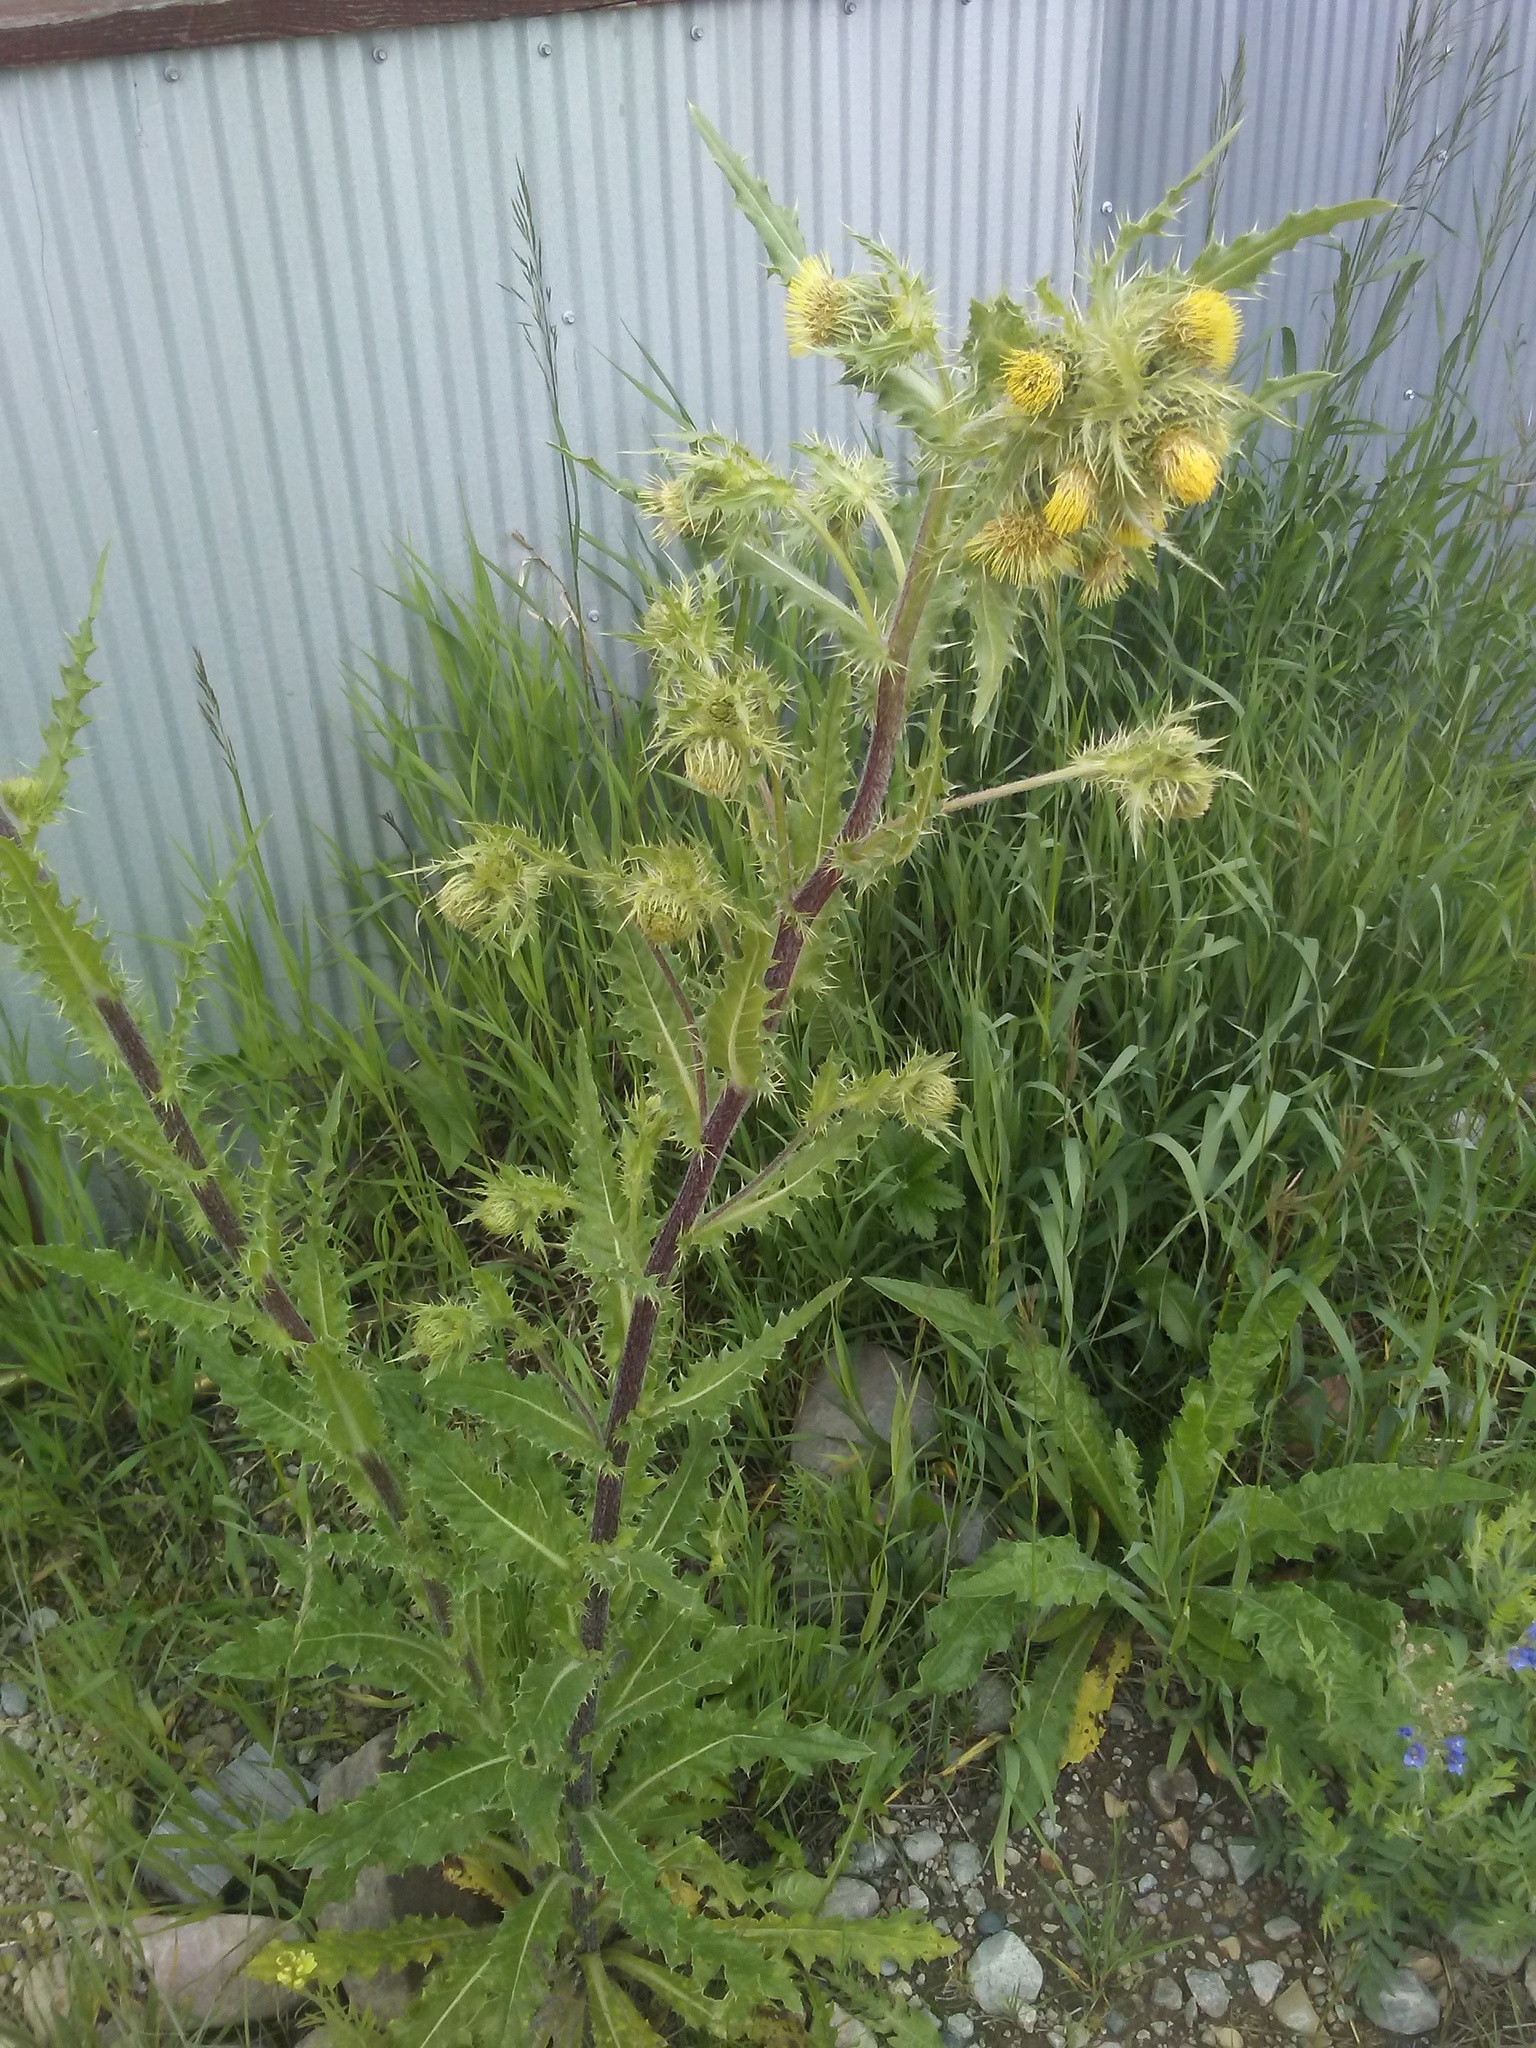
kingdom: Plantae
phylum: Tracheophyta
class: Magnoliopsida
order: Asterales
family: Asteraceae
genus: Cirsium
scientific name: Cirsium parryi
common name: Parry's thistle
